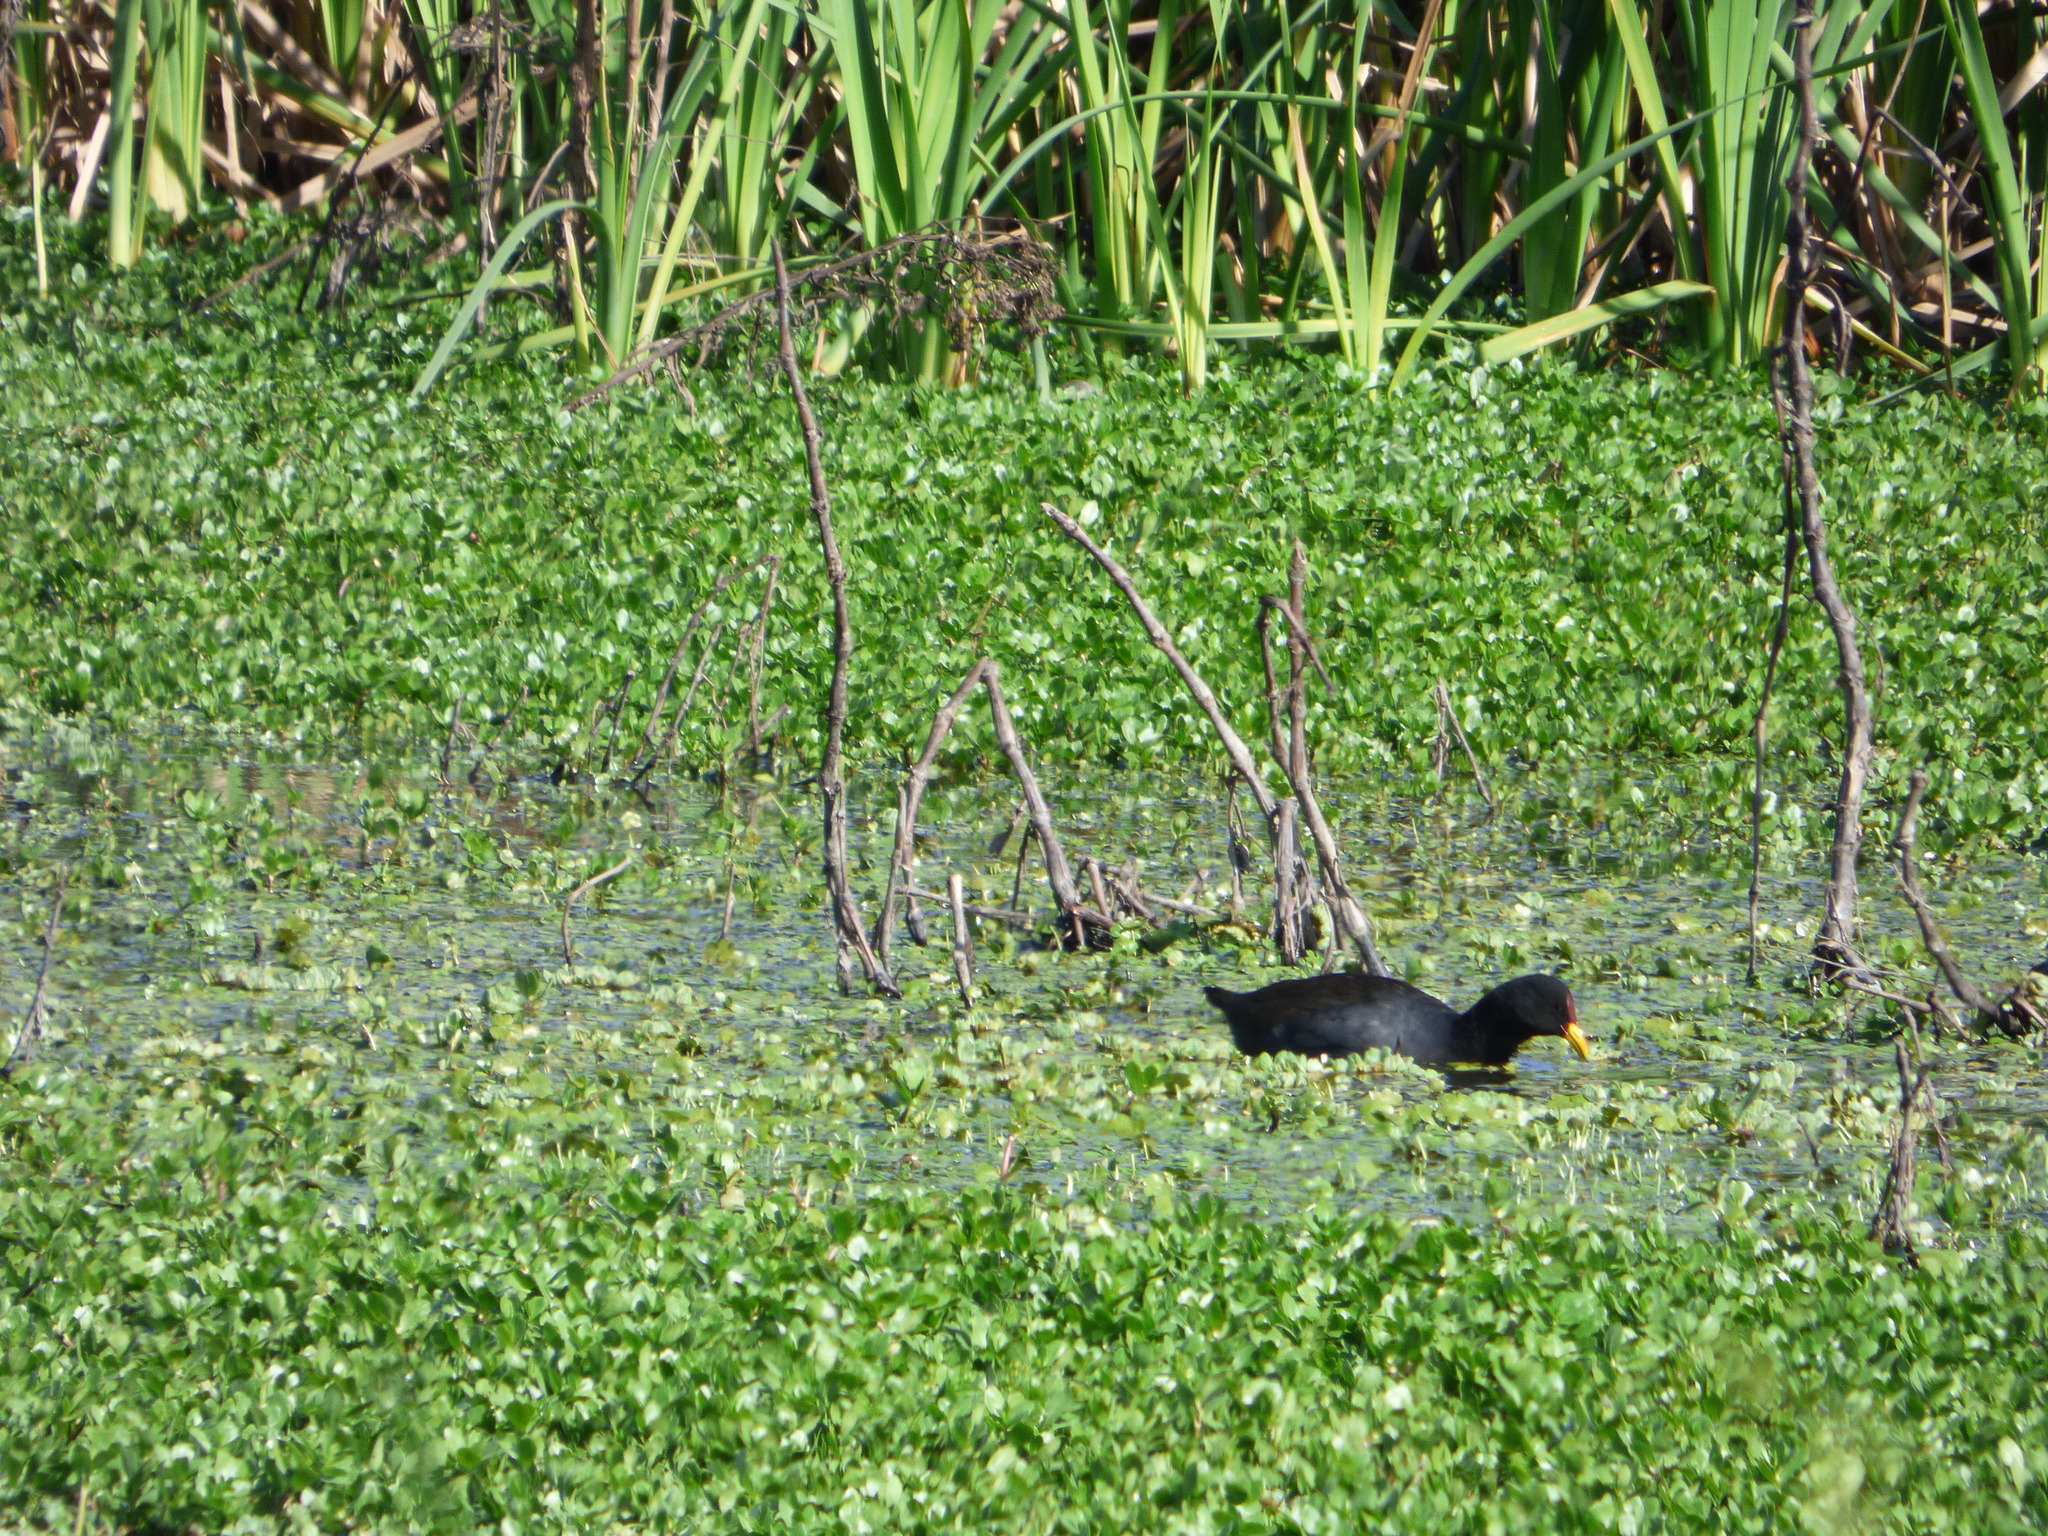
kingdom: Animalia
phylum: Chordata
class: Aves
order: Gruiformes
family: Rallidae
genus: Fulica
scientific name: Fulica rufifrons
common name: Red-fronted coot
